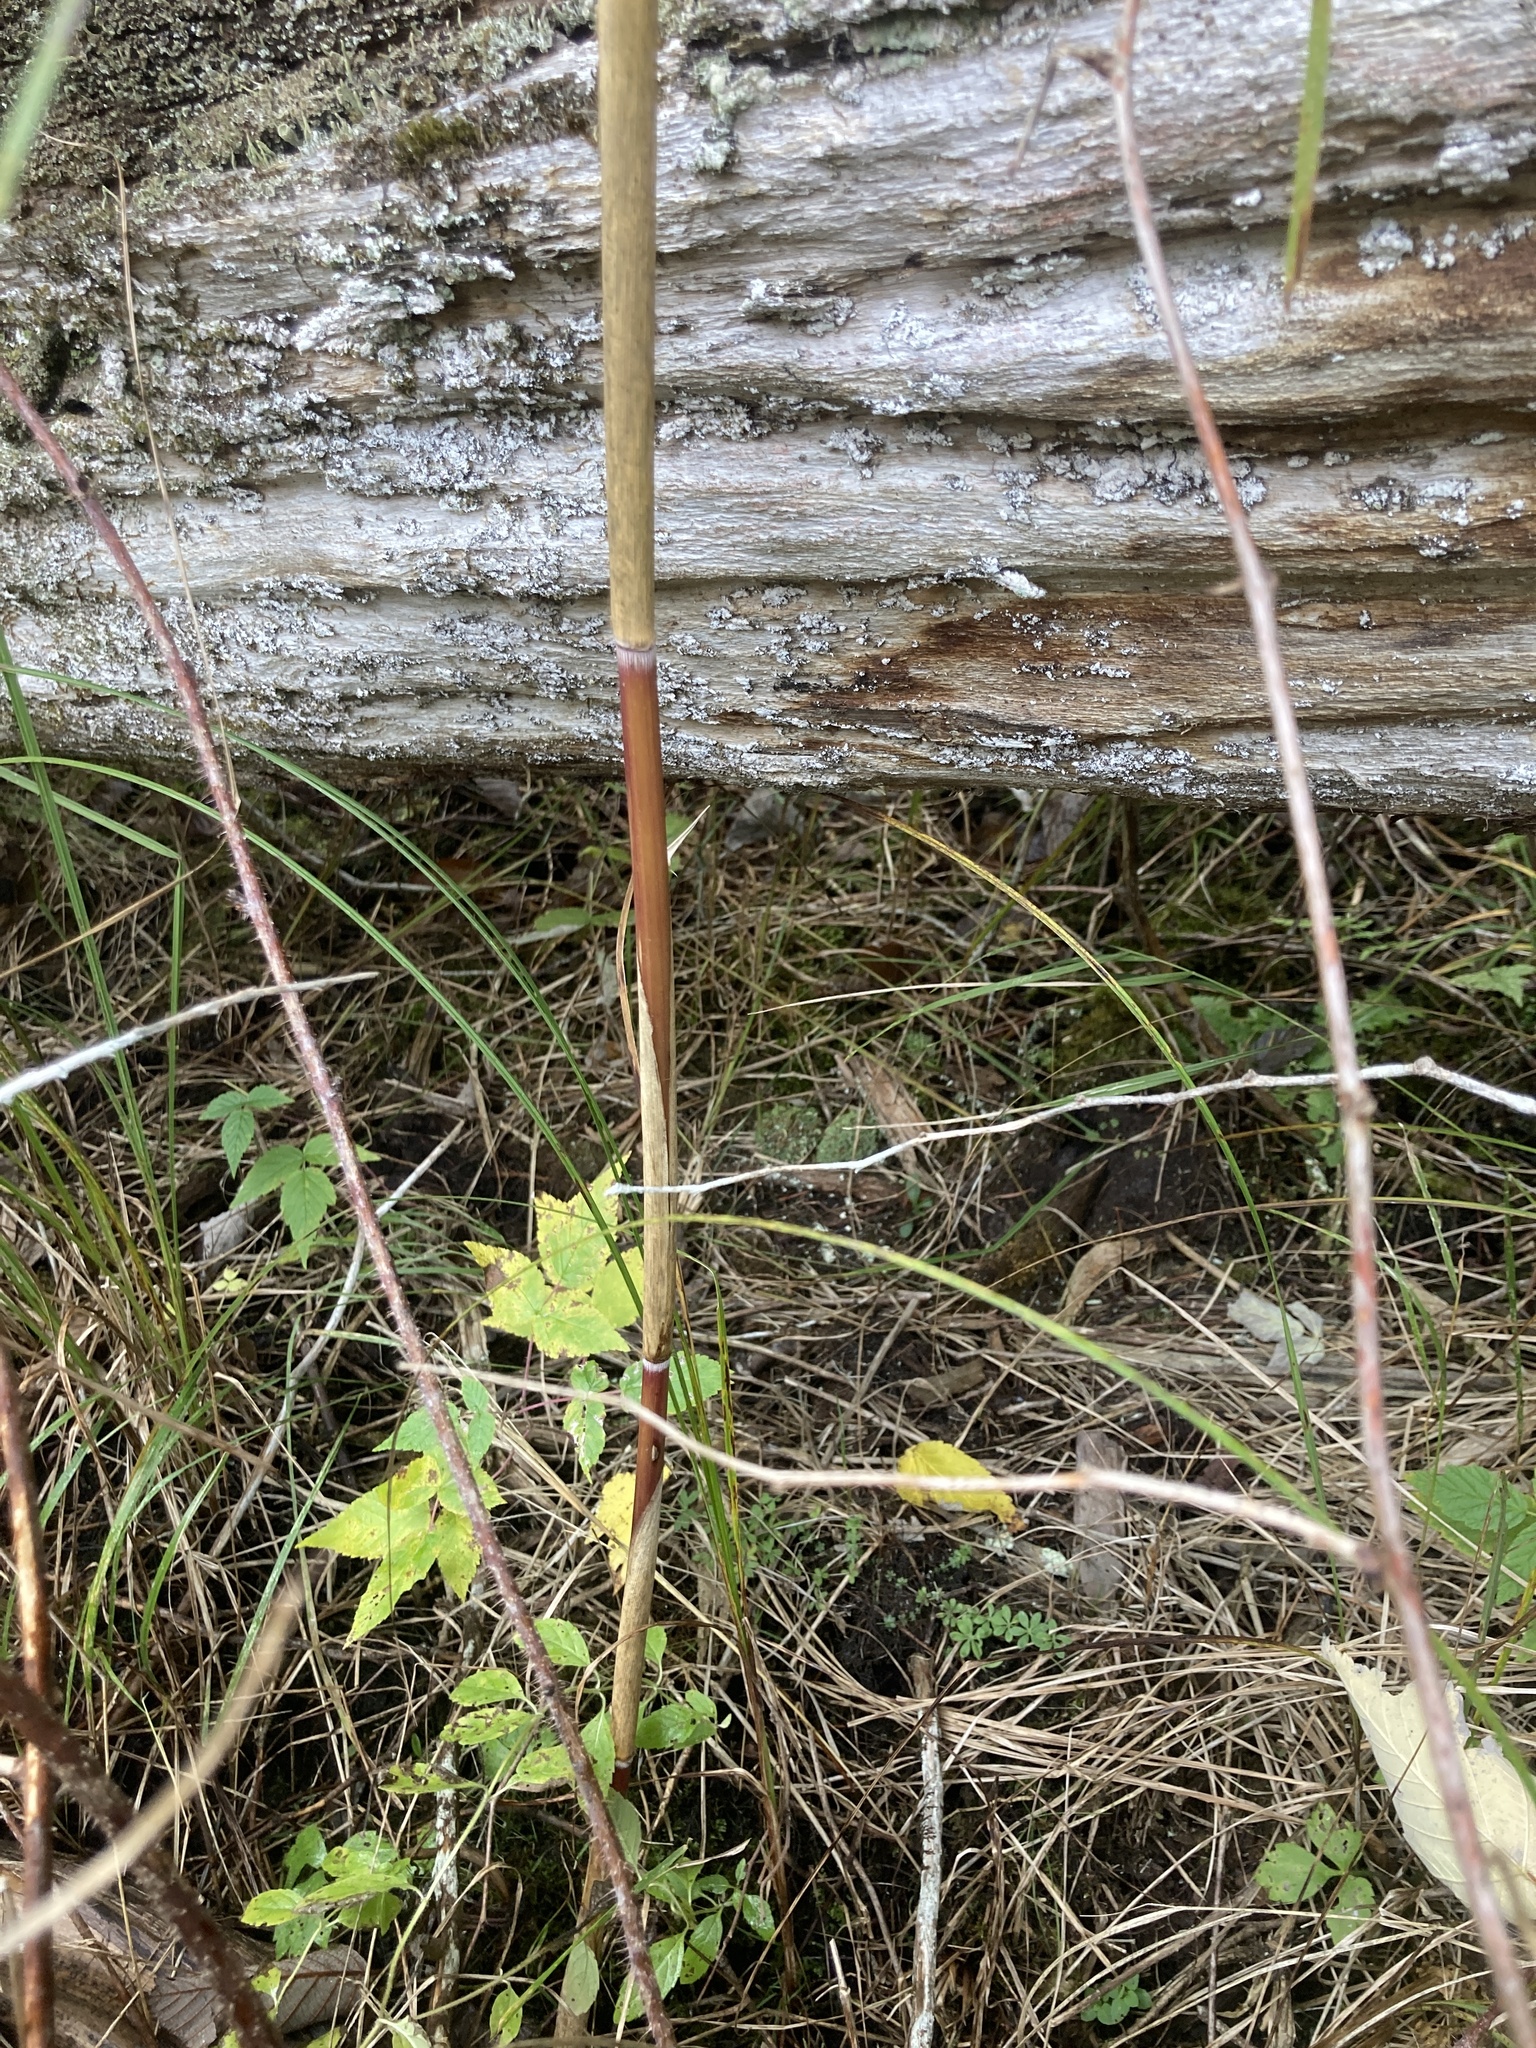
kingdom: Plantae
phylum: Tracheophyta
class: Liliopsida
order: Poales
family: Poaceae
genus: Phragmites
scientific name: Phragmites australis
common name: Common reed
